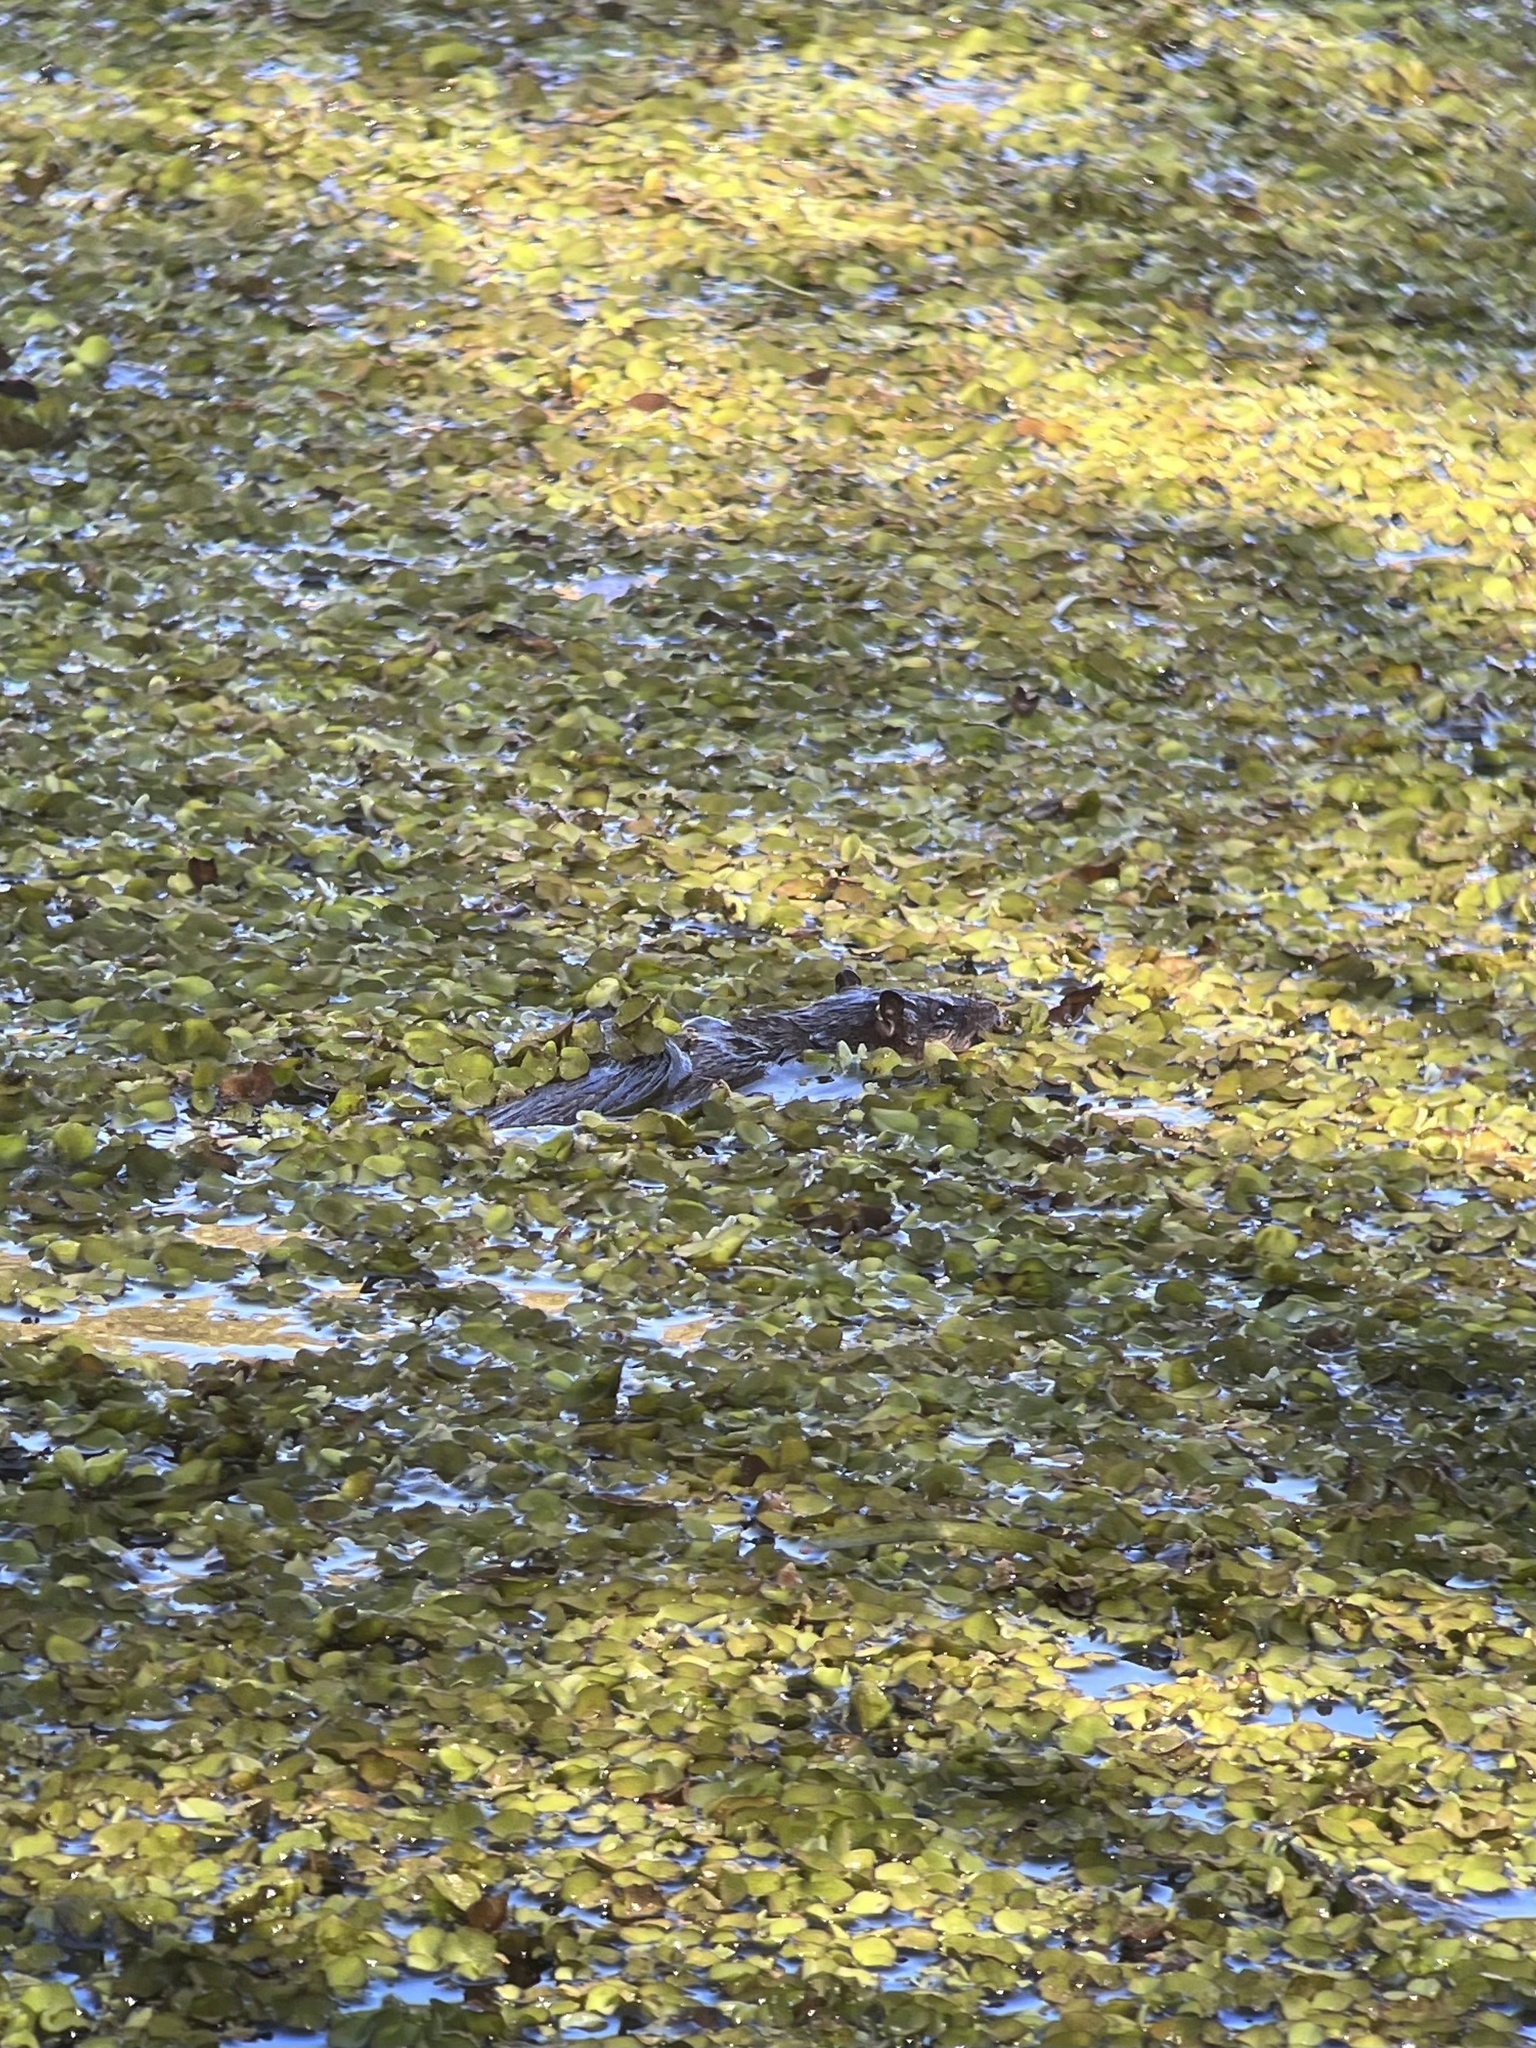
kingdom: Animalia
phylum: Chordata
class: Mammalia
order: Rodentia
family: Muridae
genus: Hydromys
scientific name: Hydromys chrysogaster
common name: Common water rat
